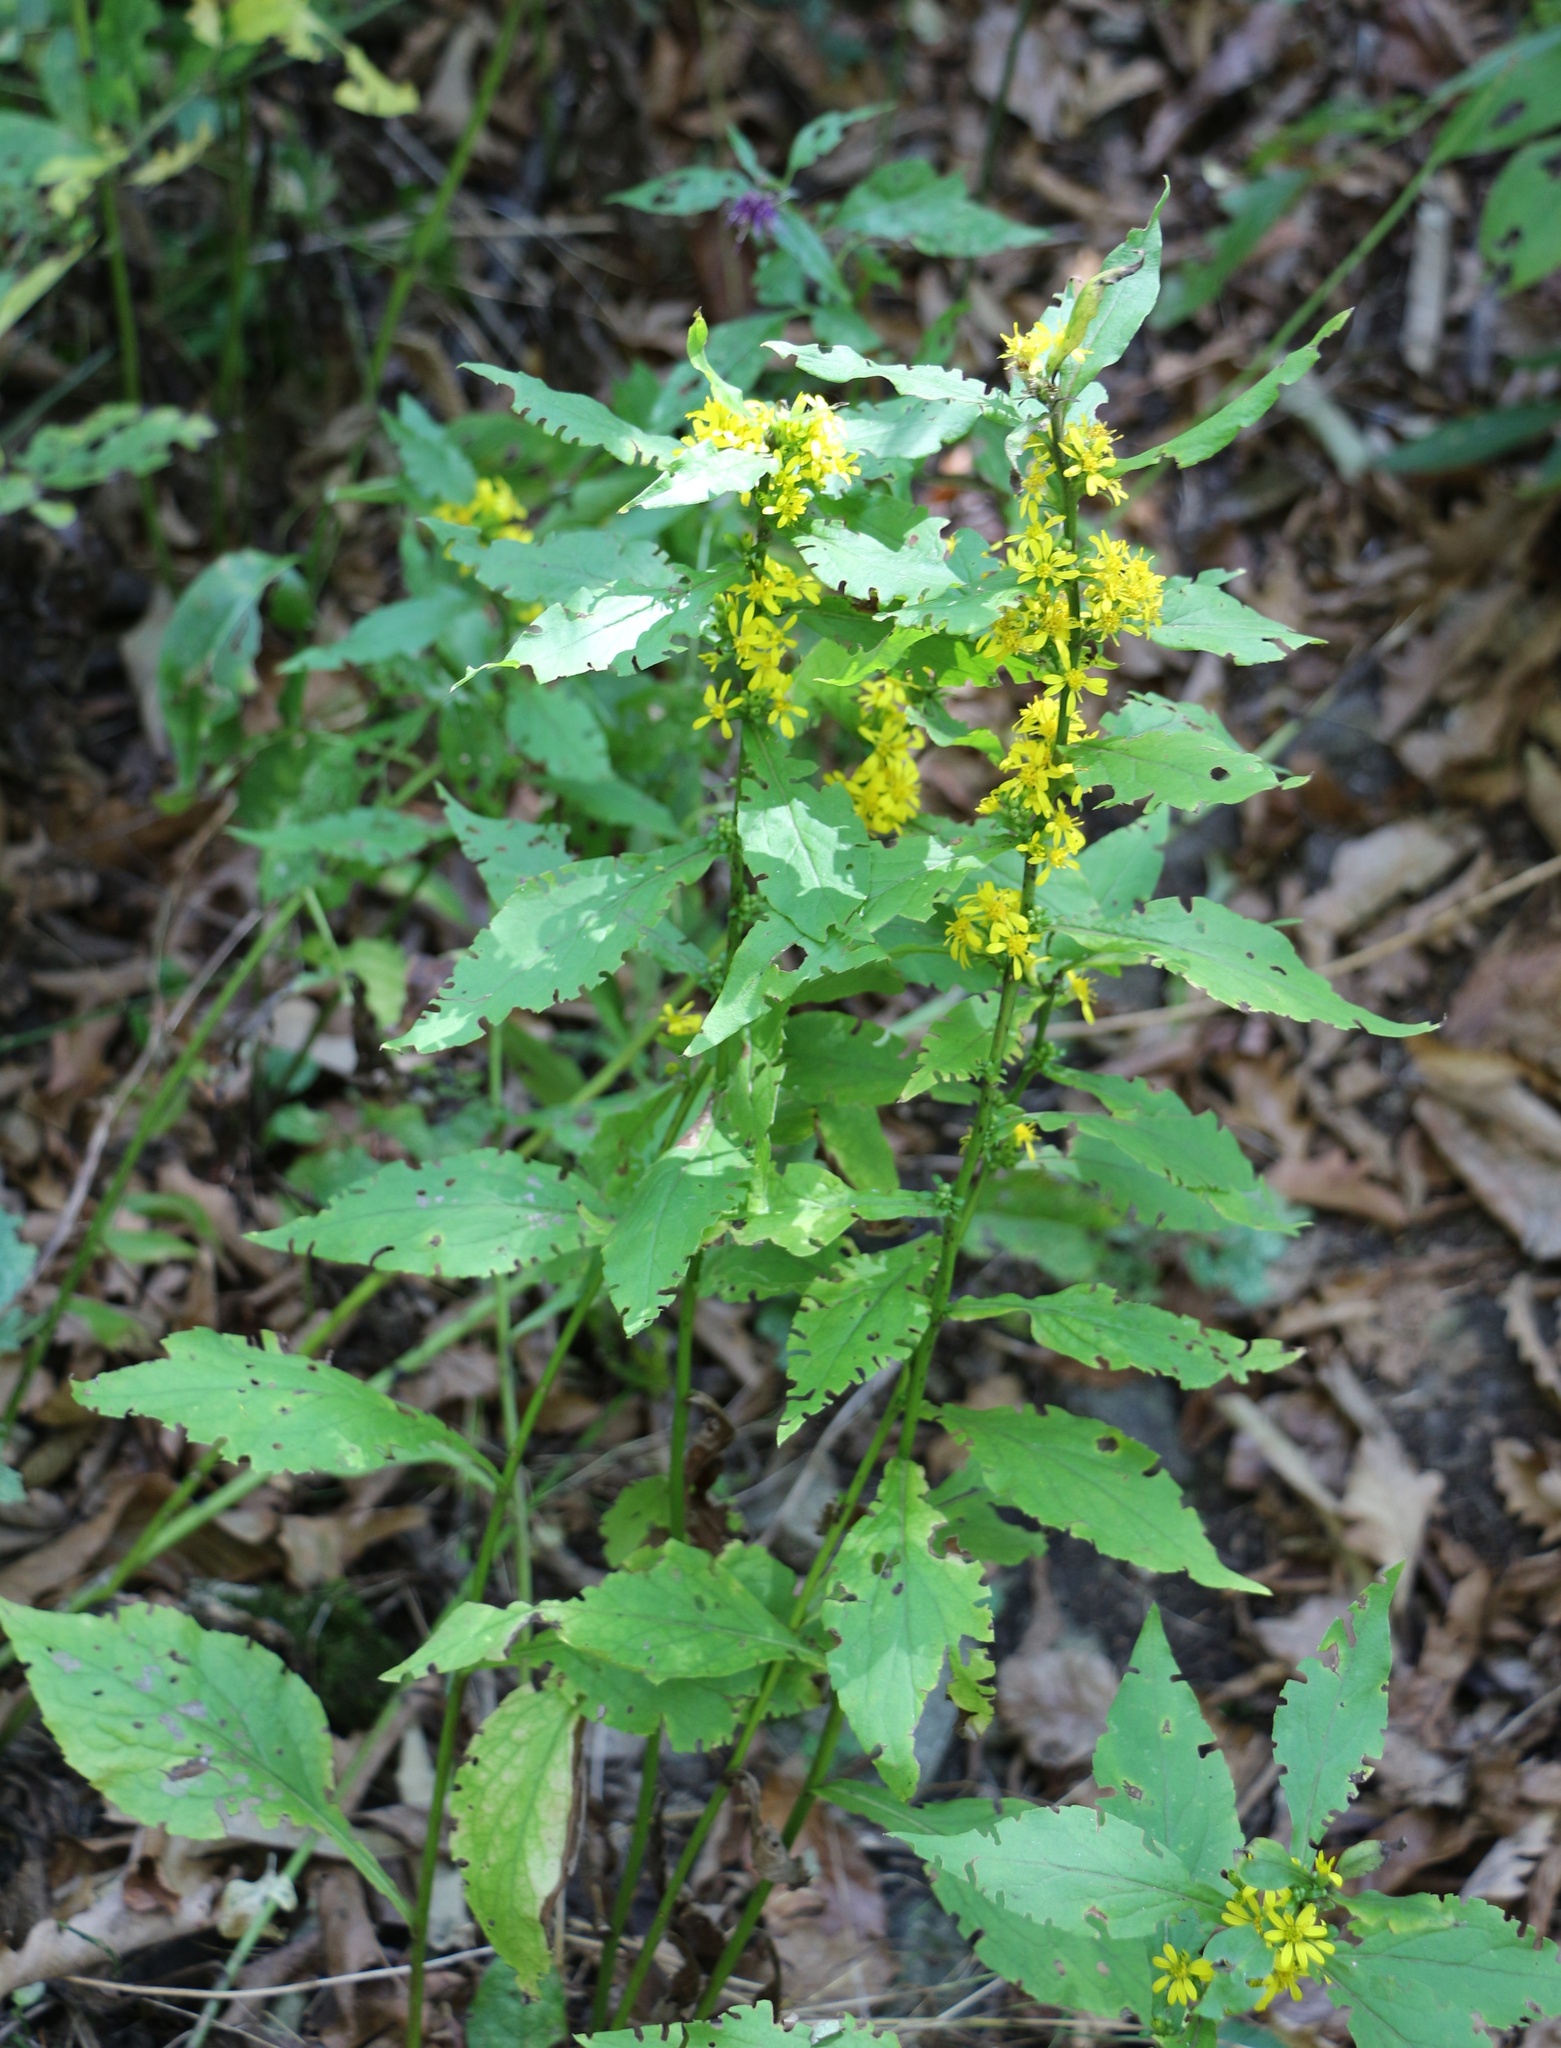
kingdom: Plantae
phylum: Tracheophyta
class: Magnoliopsida
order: Asterales
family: Asteraceae
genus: Solidago
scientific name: Solidago virgaurea
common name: Goldenrod
